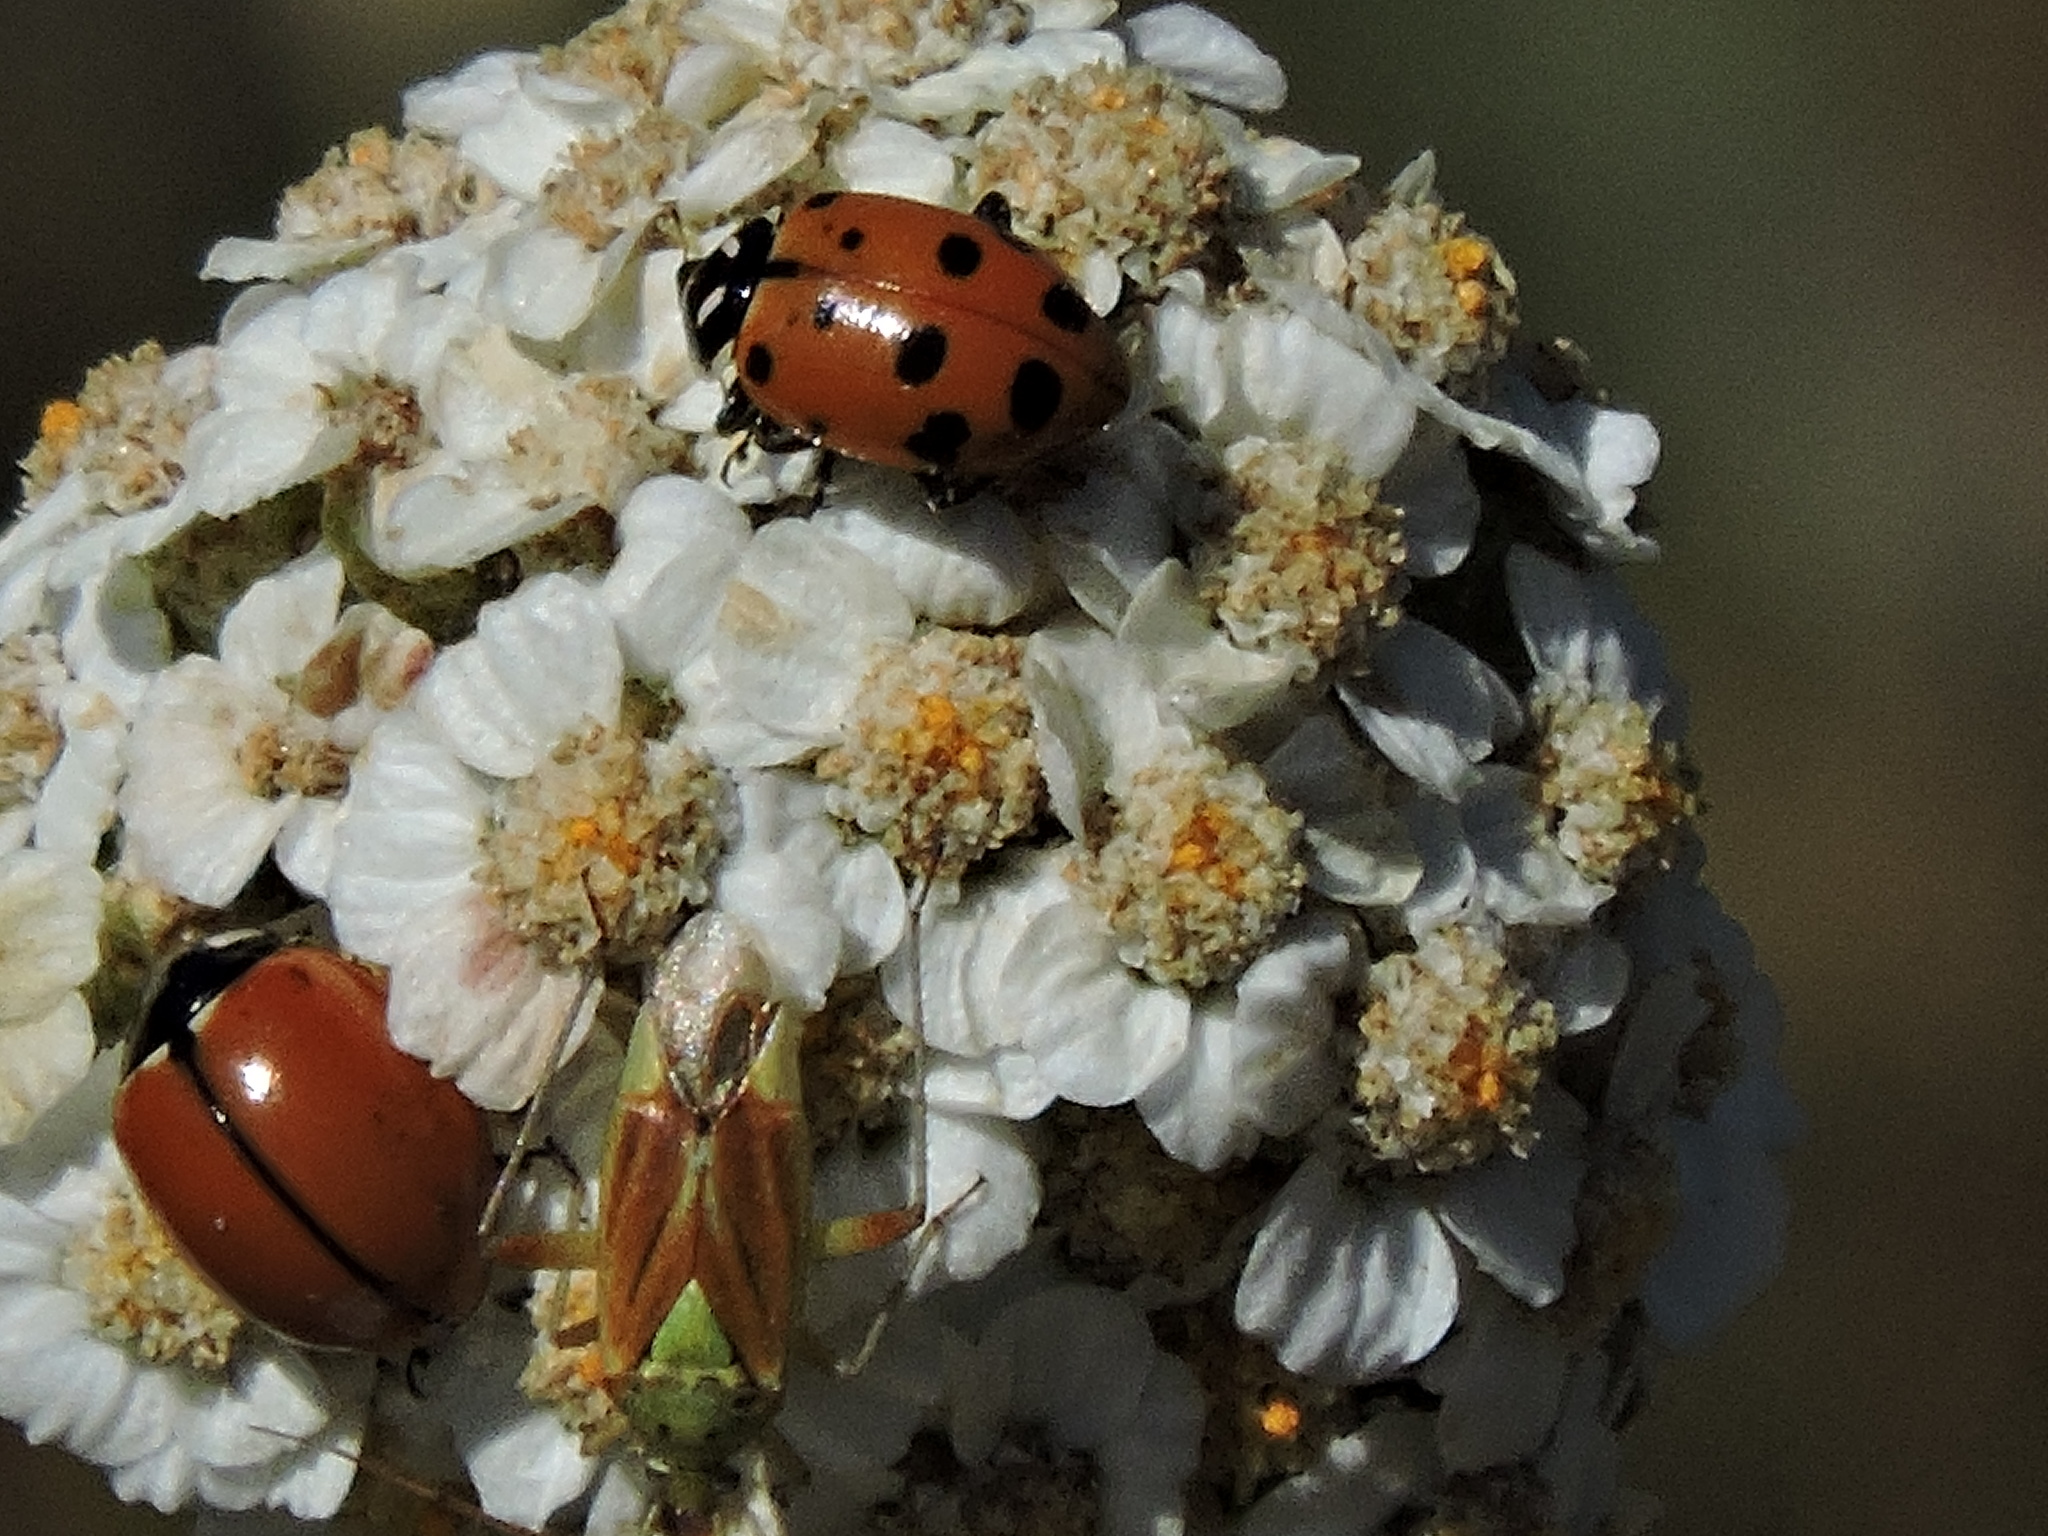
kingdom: Animalia
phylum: Arthropoda
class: Insecta
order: Coleoptera
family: Coccinellidae
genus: Coccinella
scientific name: Coccinella californica
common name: Lady beetle
